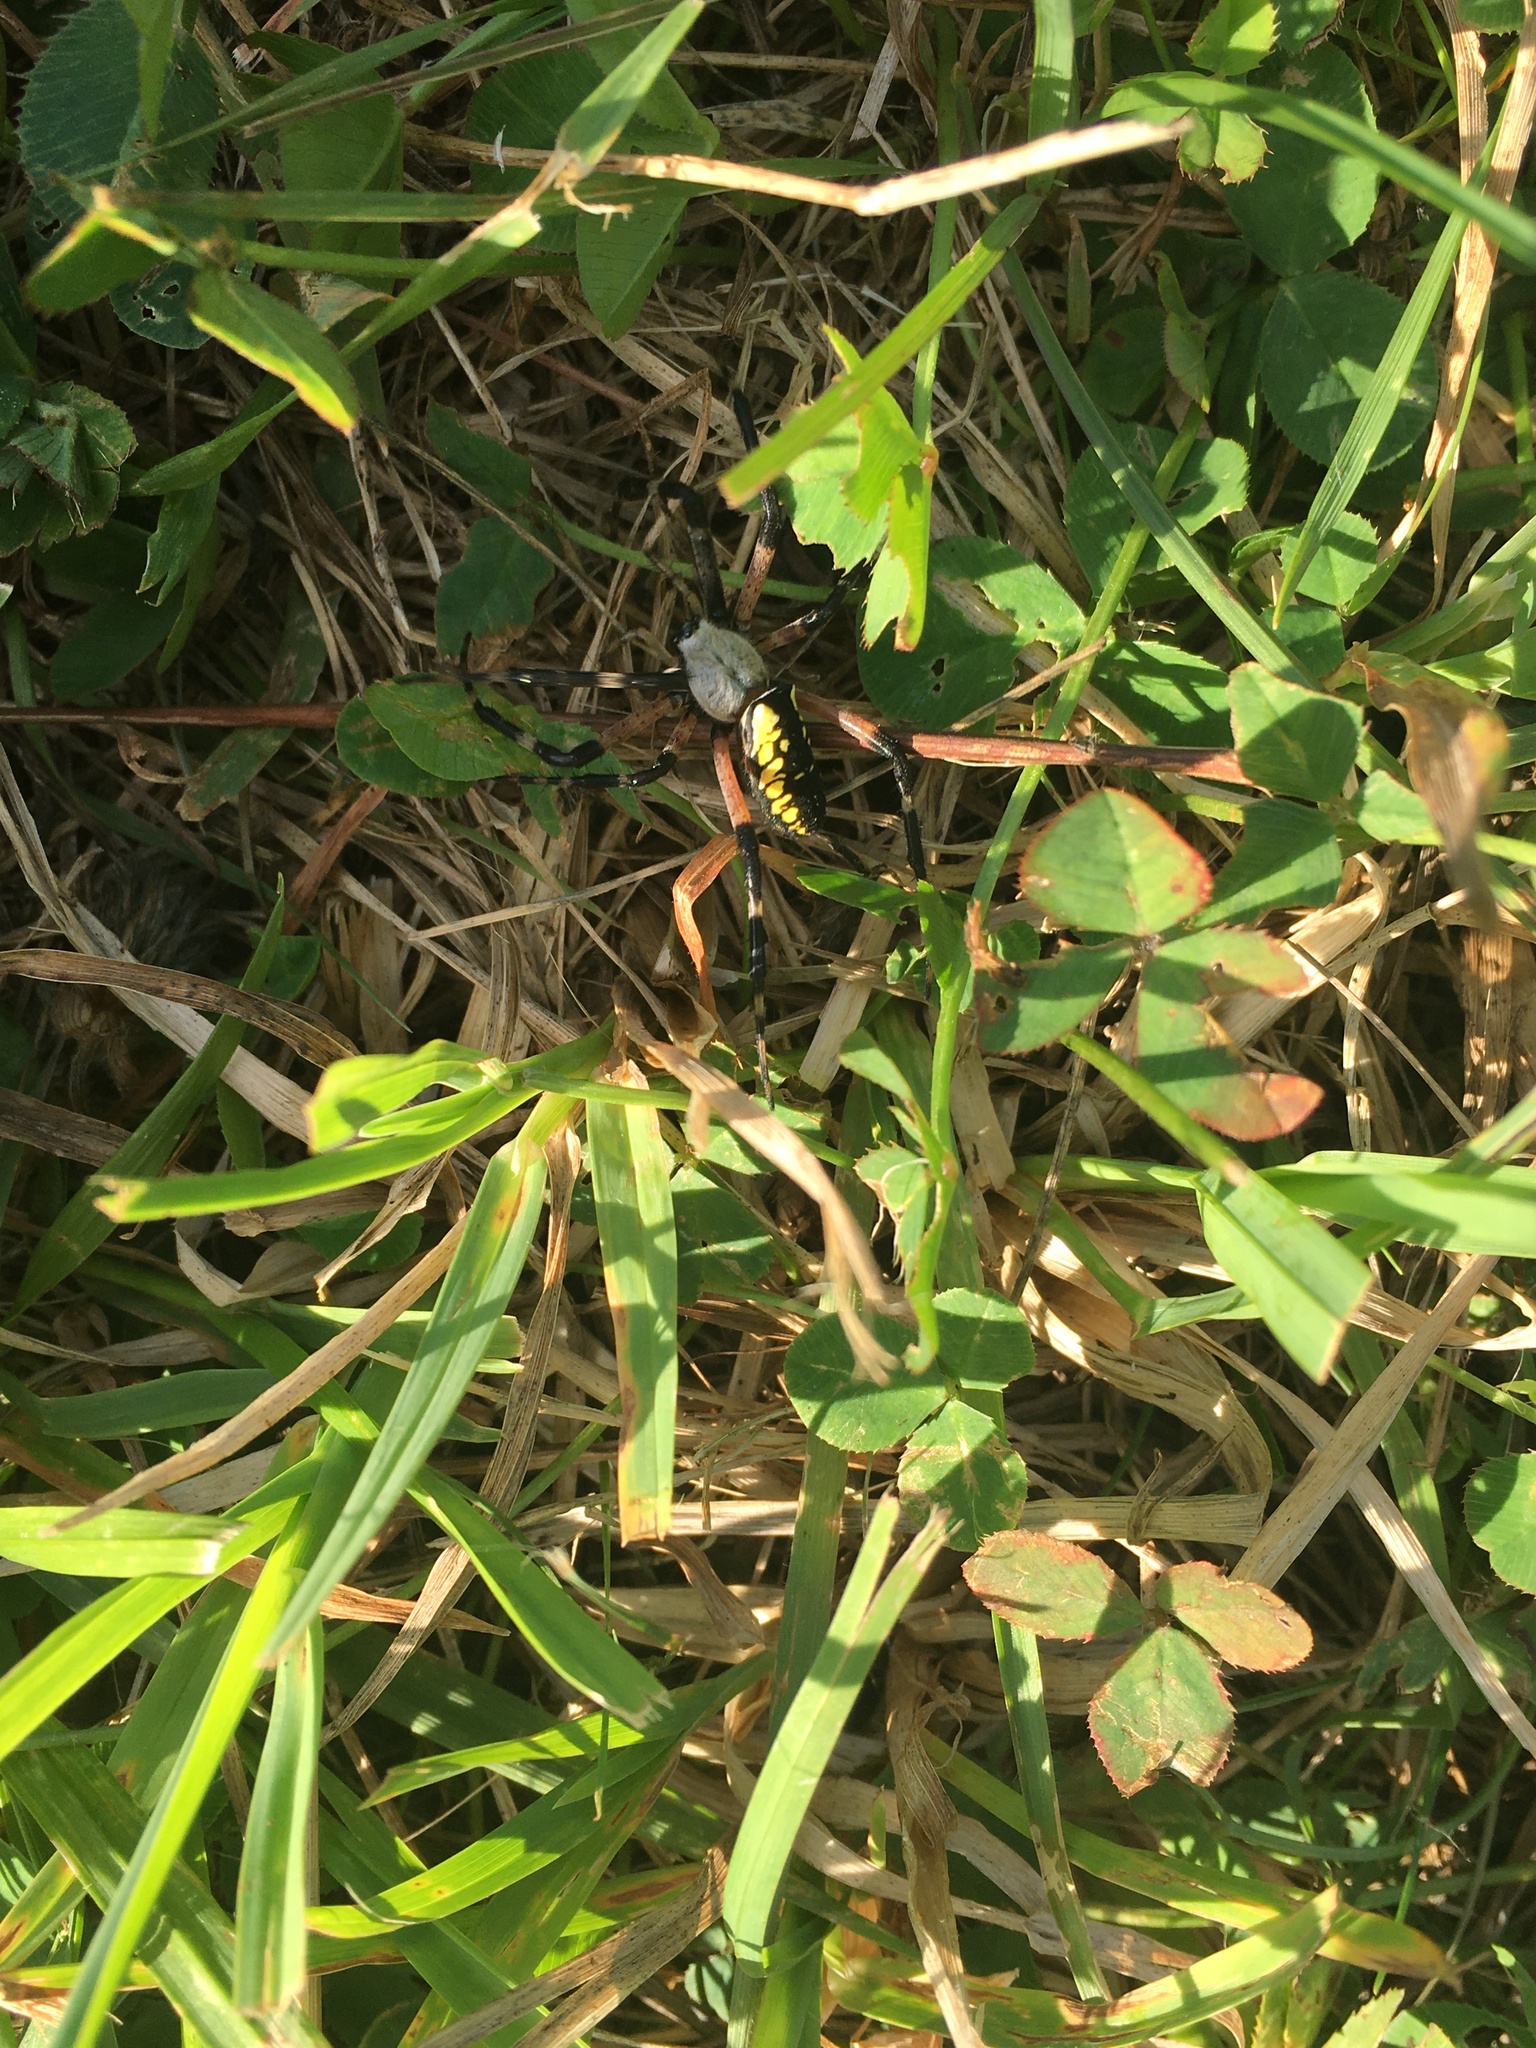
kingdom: Animalia
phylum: Arthropoda
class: Arachnida
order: Araneae
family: Araneidae
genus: Argiope
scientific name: Argiope aurantia
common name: Orb weavers
